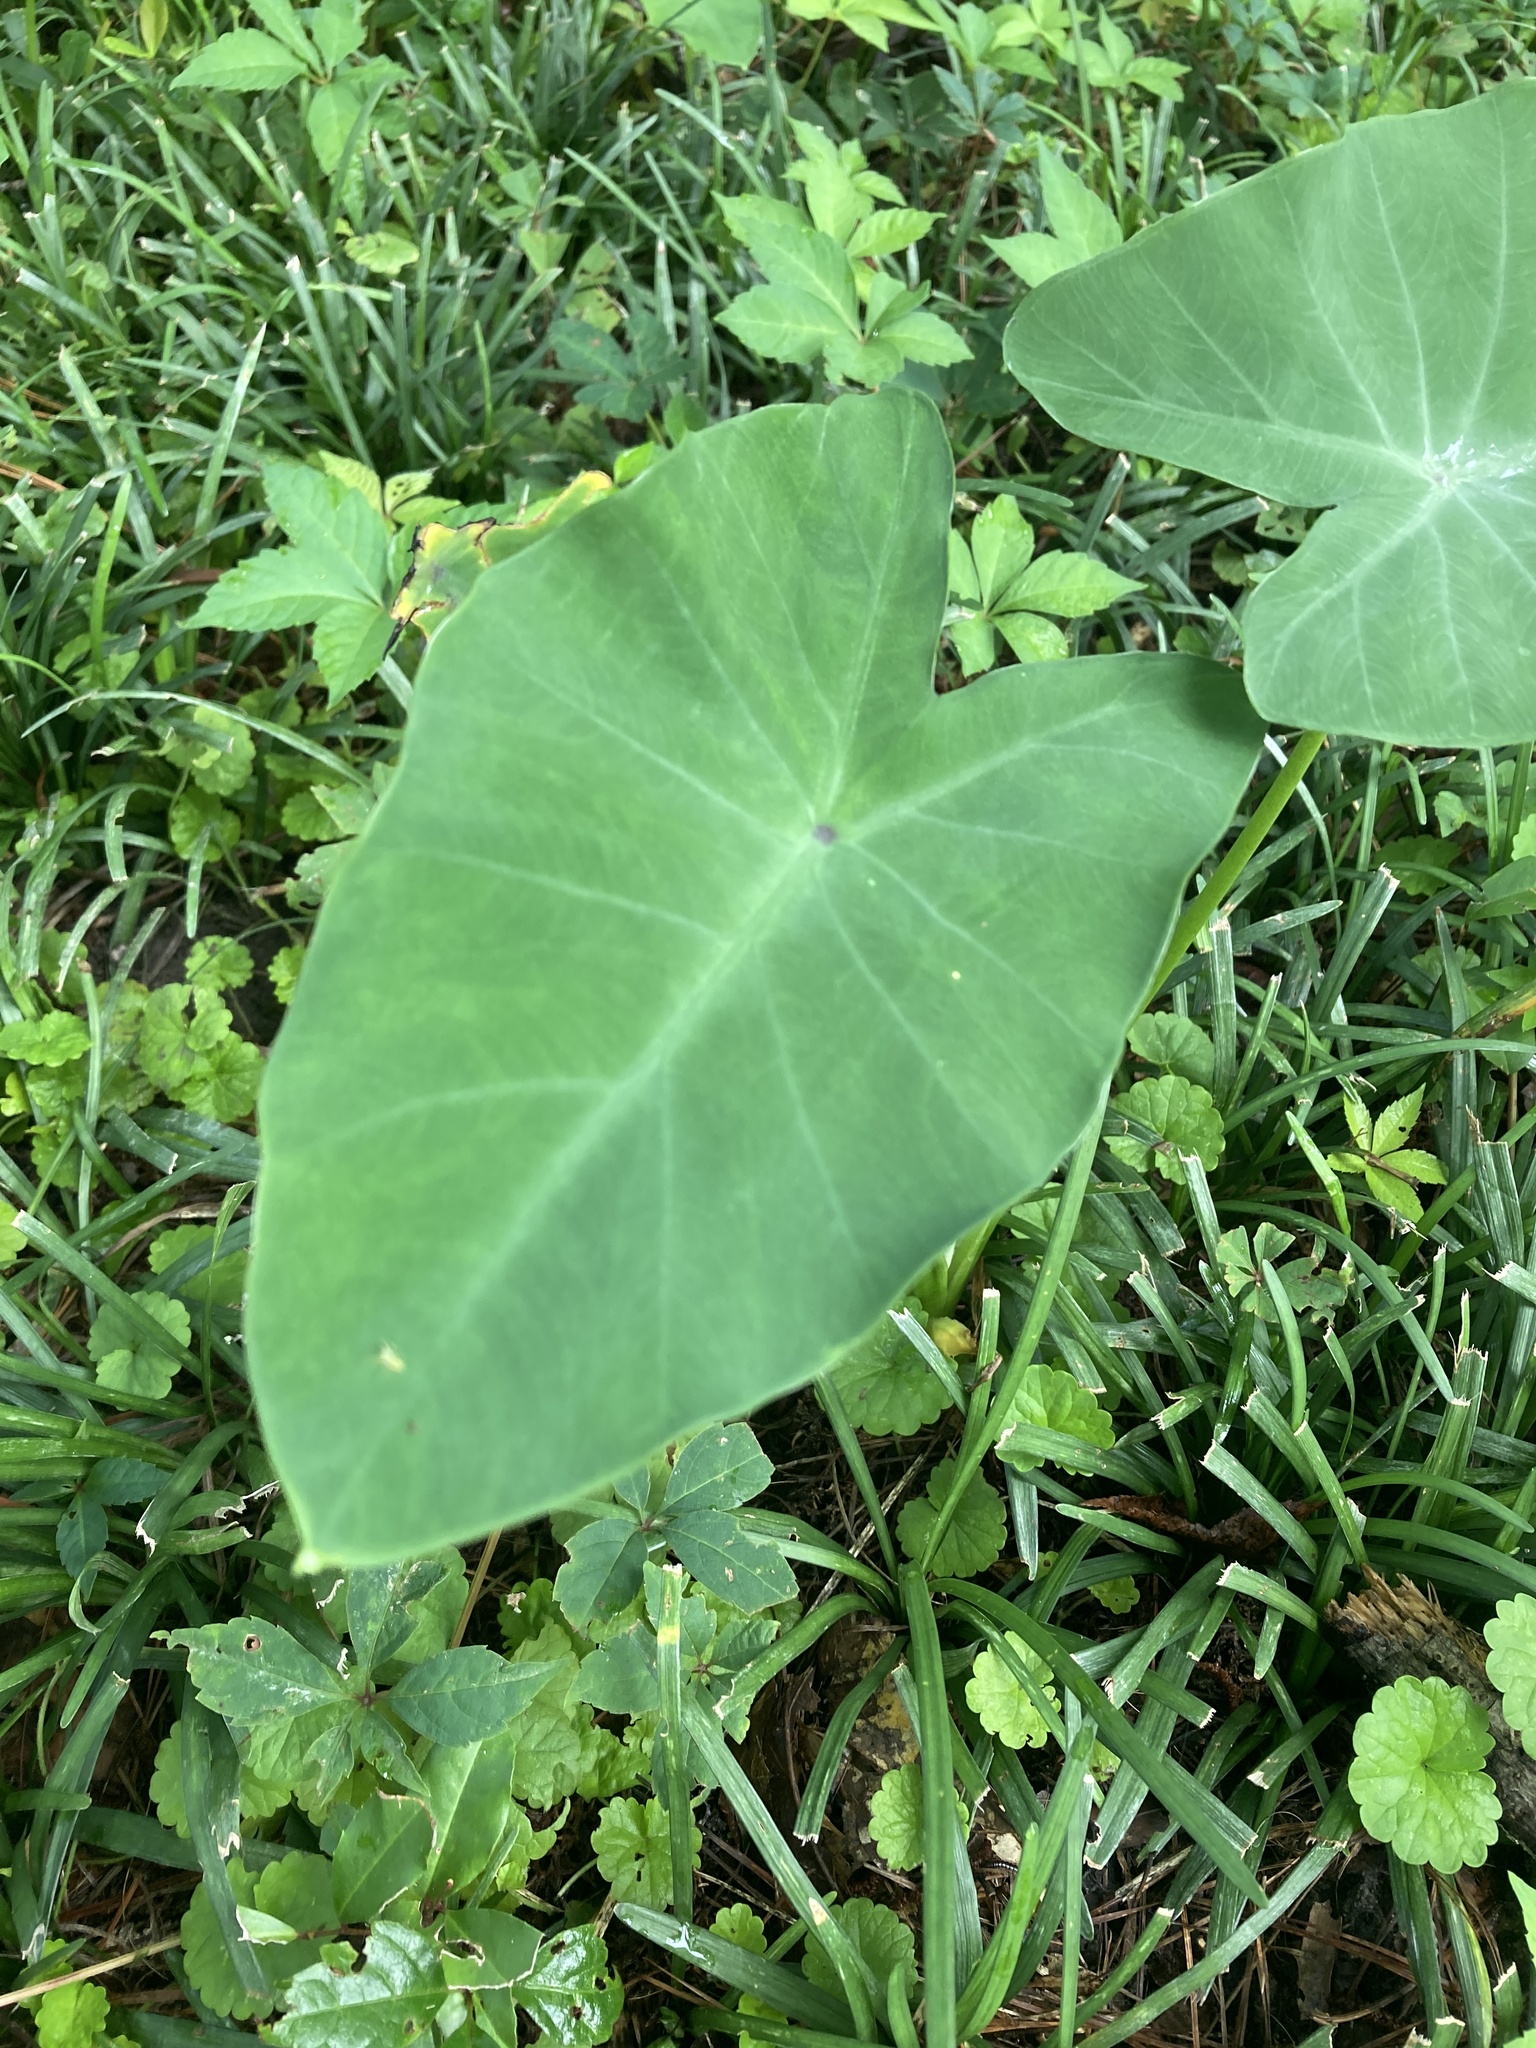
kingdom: Plantae
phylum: Tracheophyta
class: Liliopsida
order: Alismatales
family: Araceae
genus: Colocasia
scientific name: Colocasia esculenta
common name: Taro
